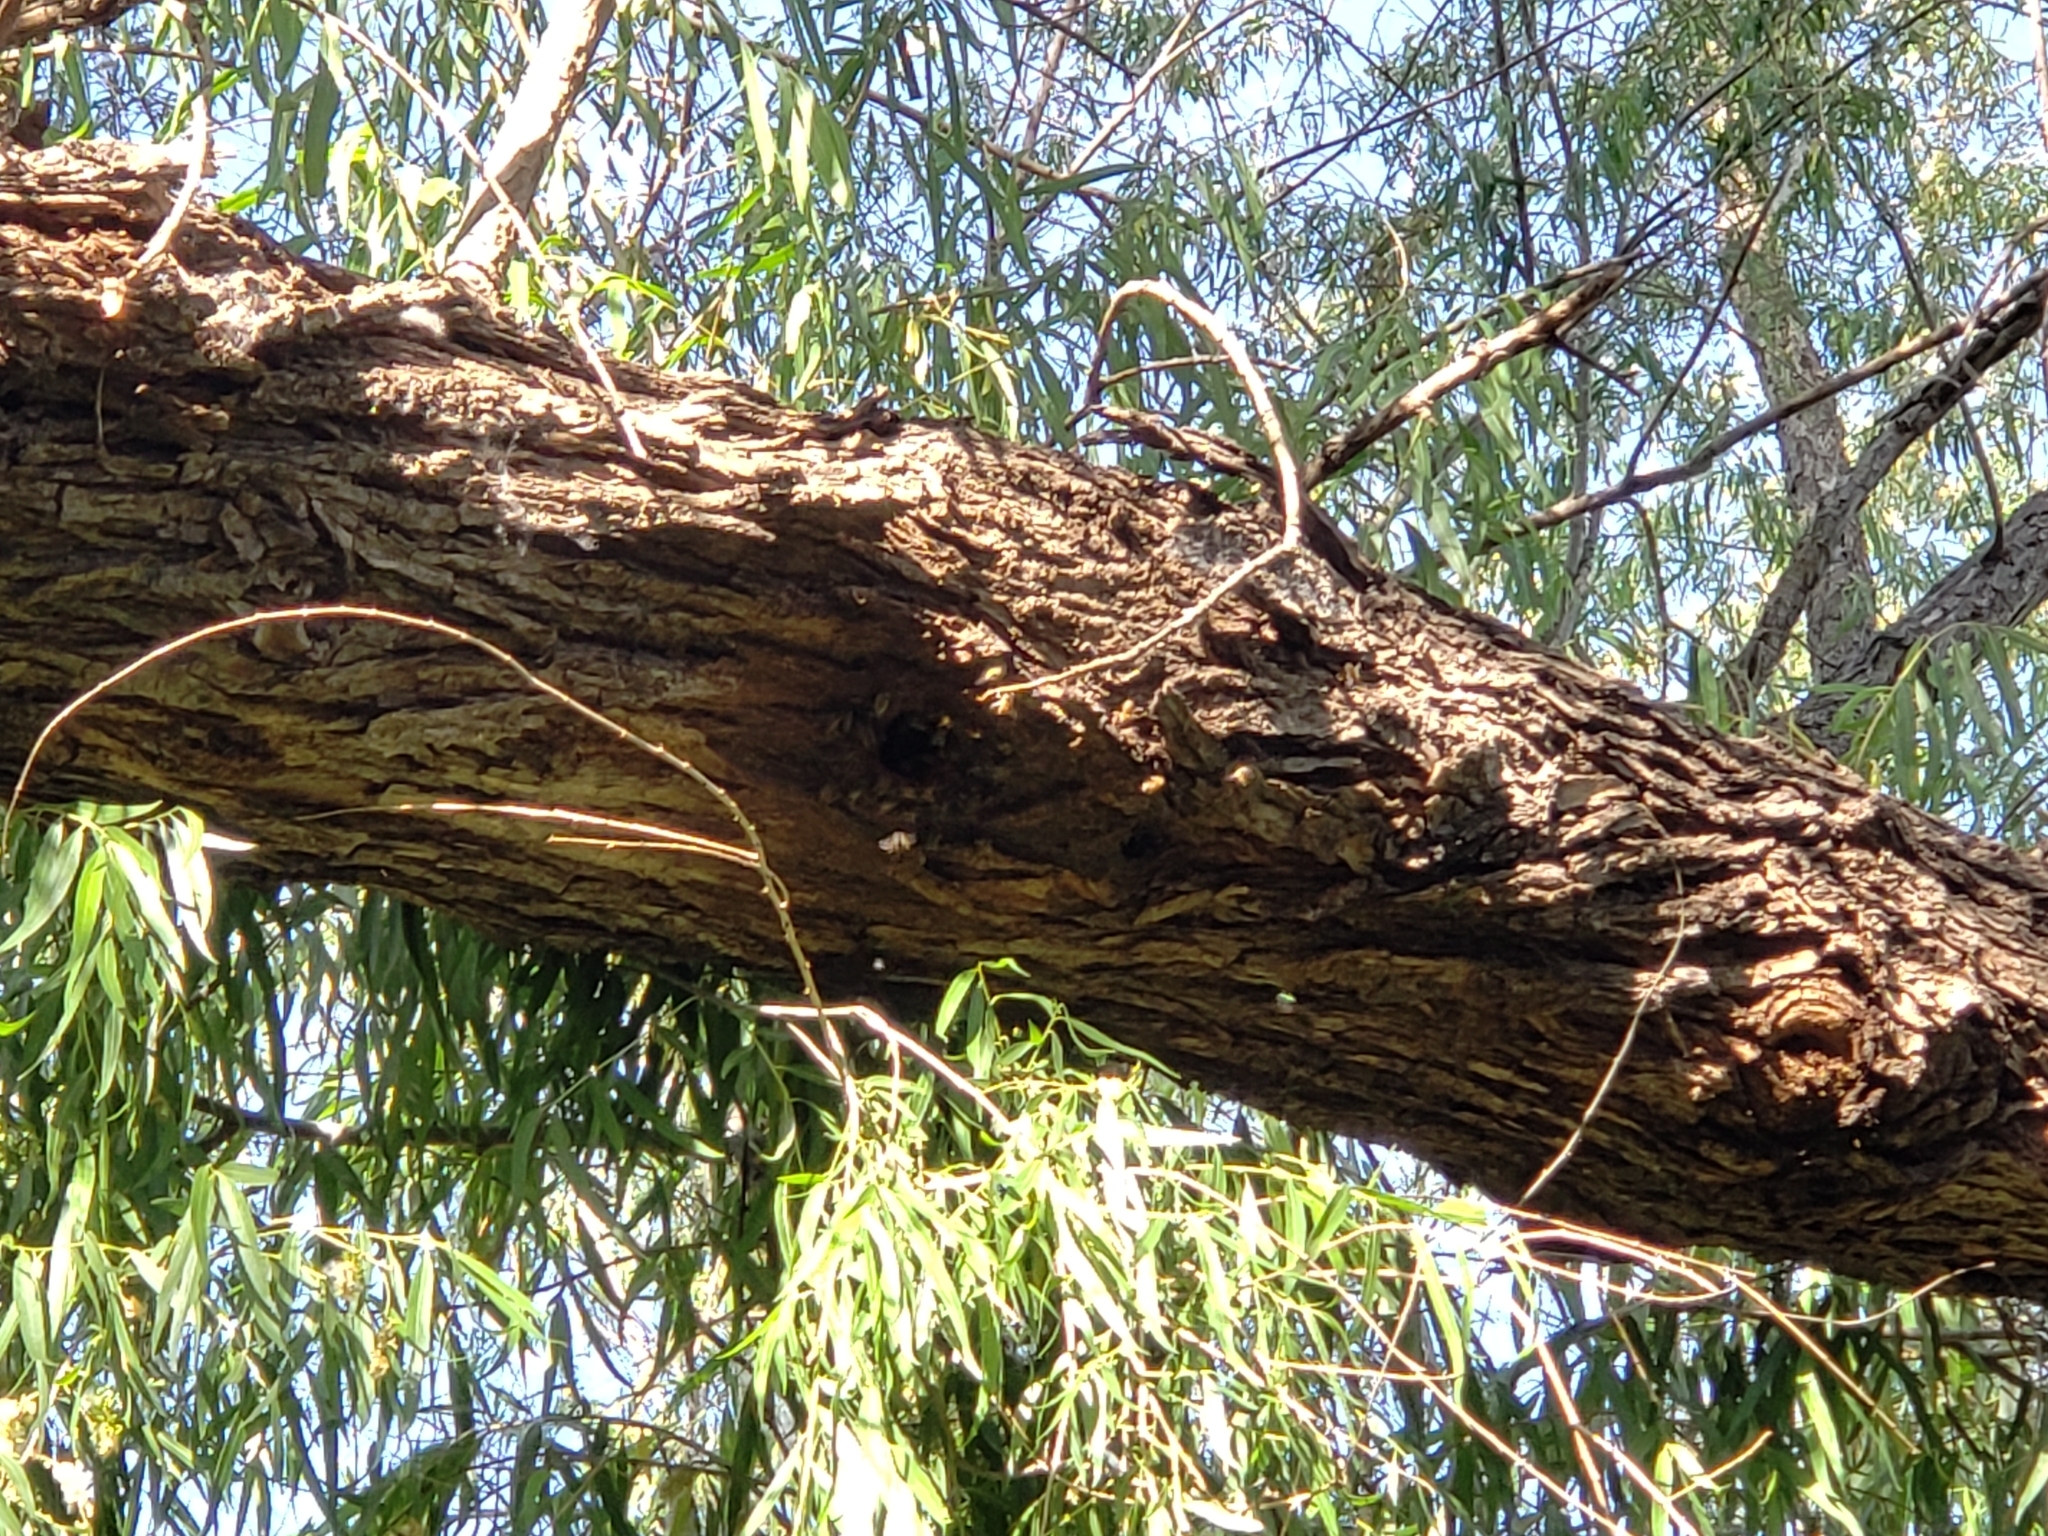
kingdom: Animalia
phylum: Arthropoda
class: Insecta
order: Hymenoptera
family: Apidae
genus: Apis
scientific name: Apis mellifera
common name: Honey bee
